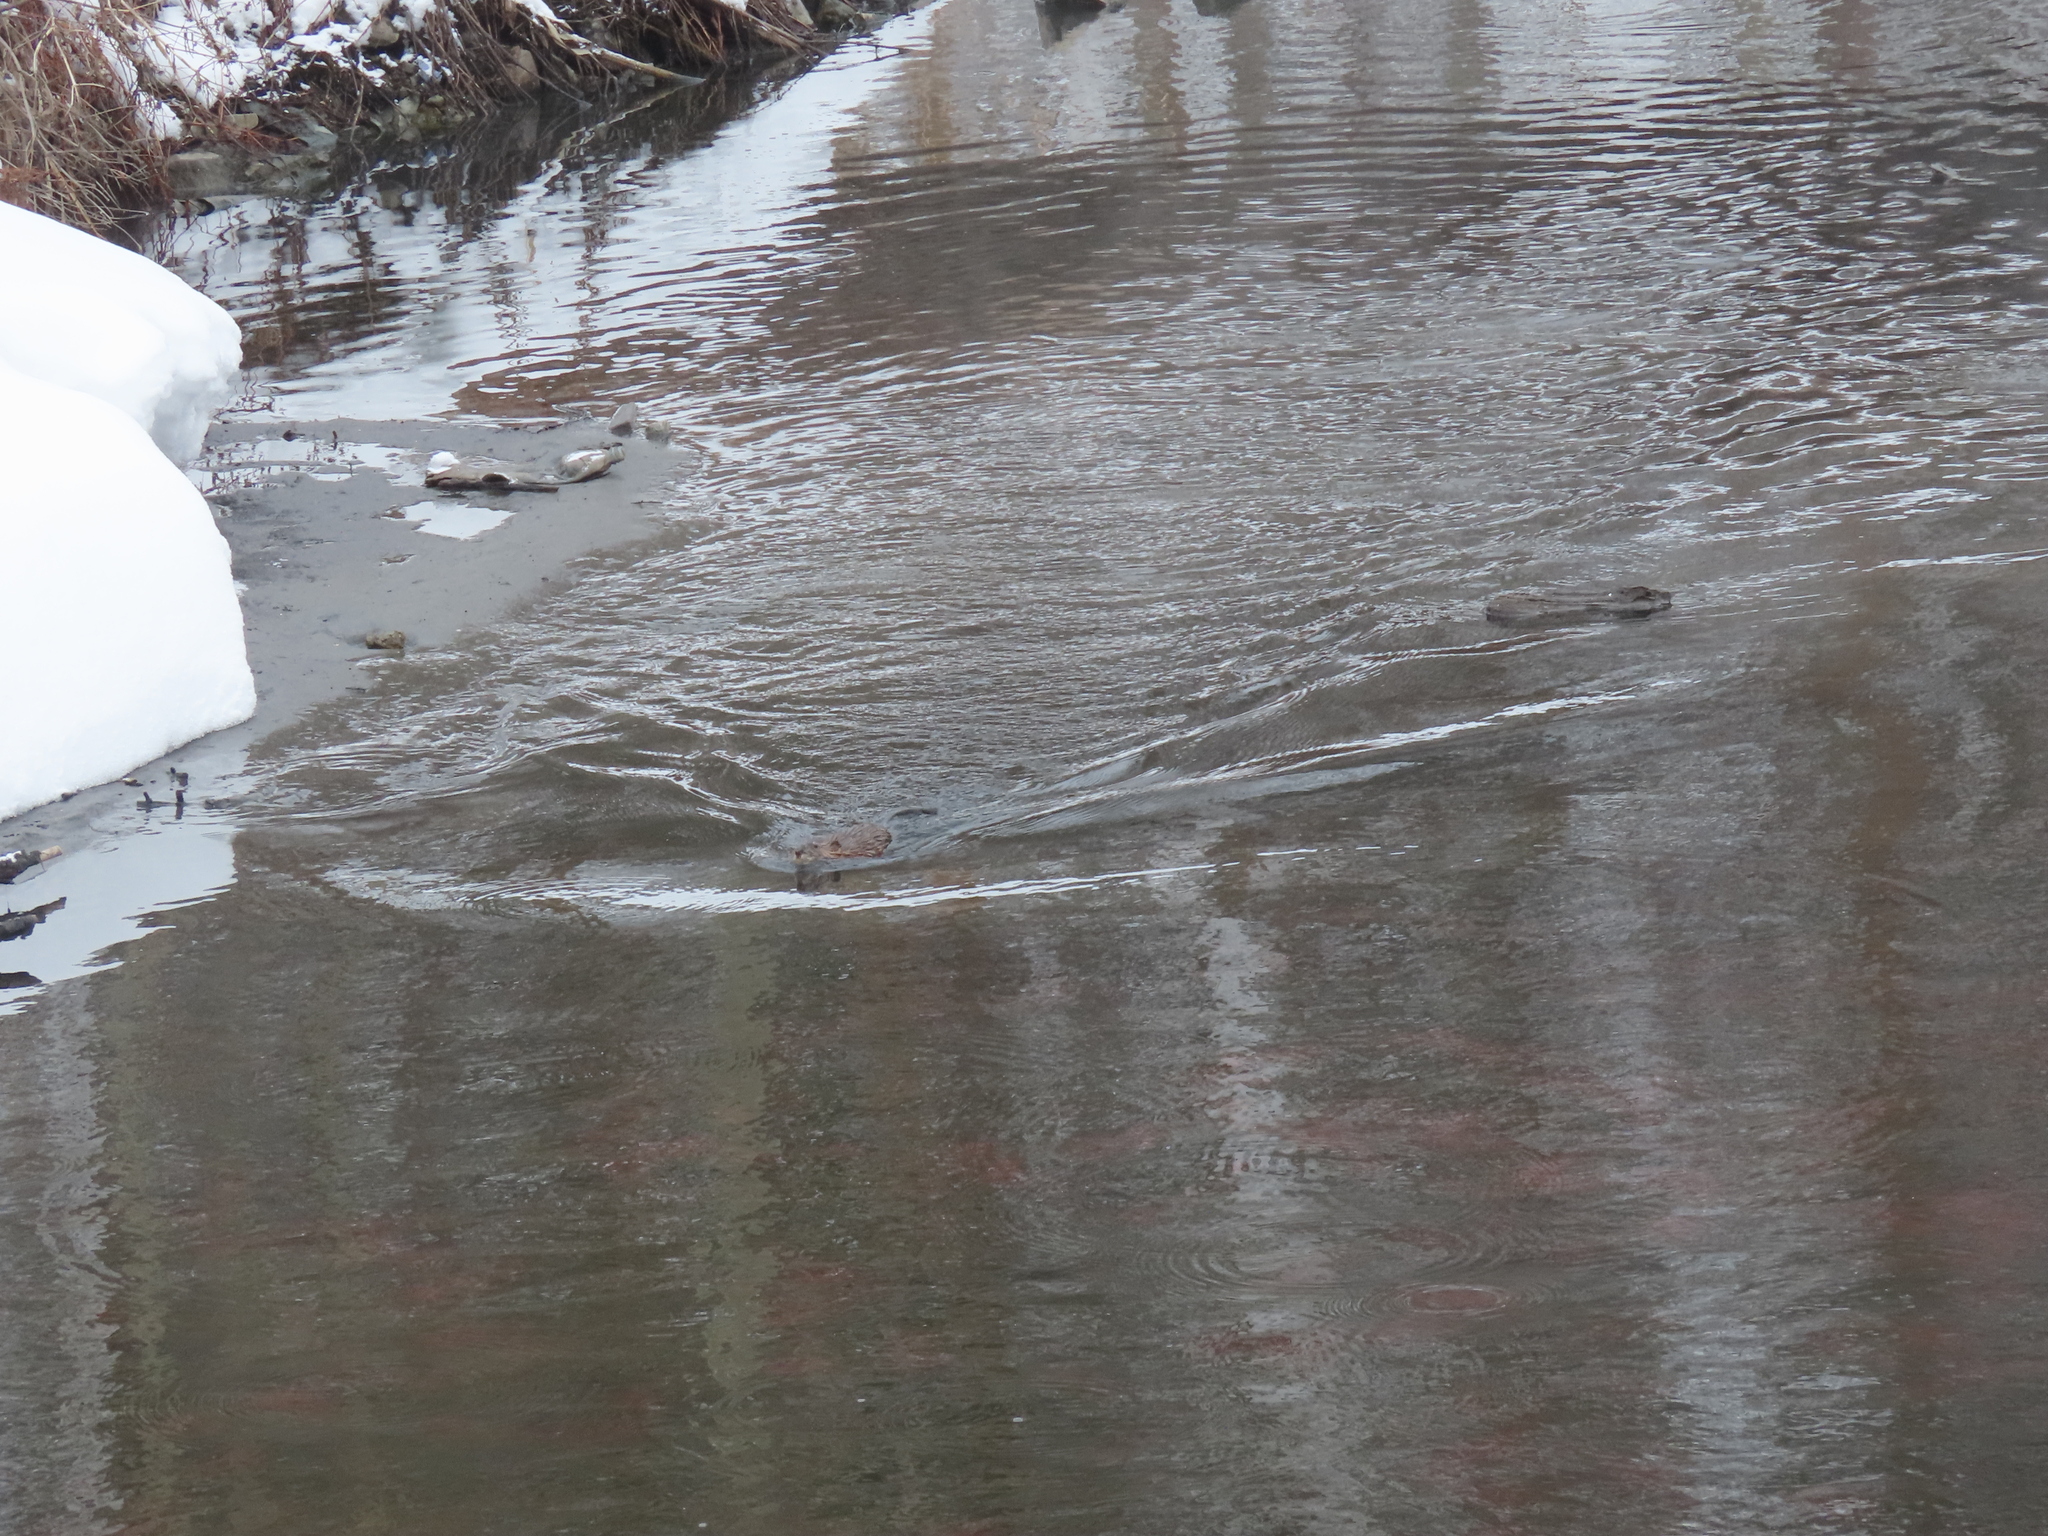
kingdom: Animalia
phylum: Chordata
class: Mammalia
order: Rodentia
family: Cricetidae
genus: Ondatra
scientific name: Ondatra zibethicus
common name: Muskrat
